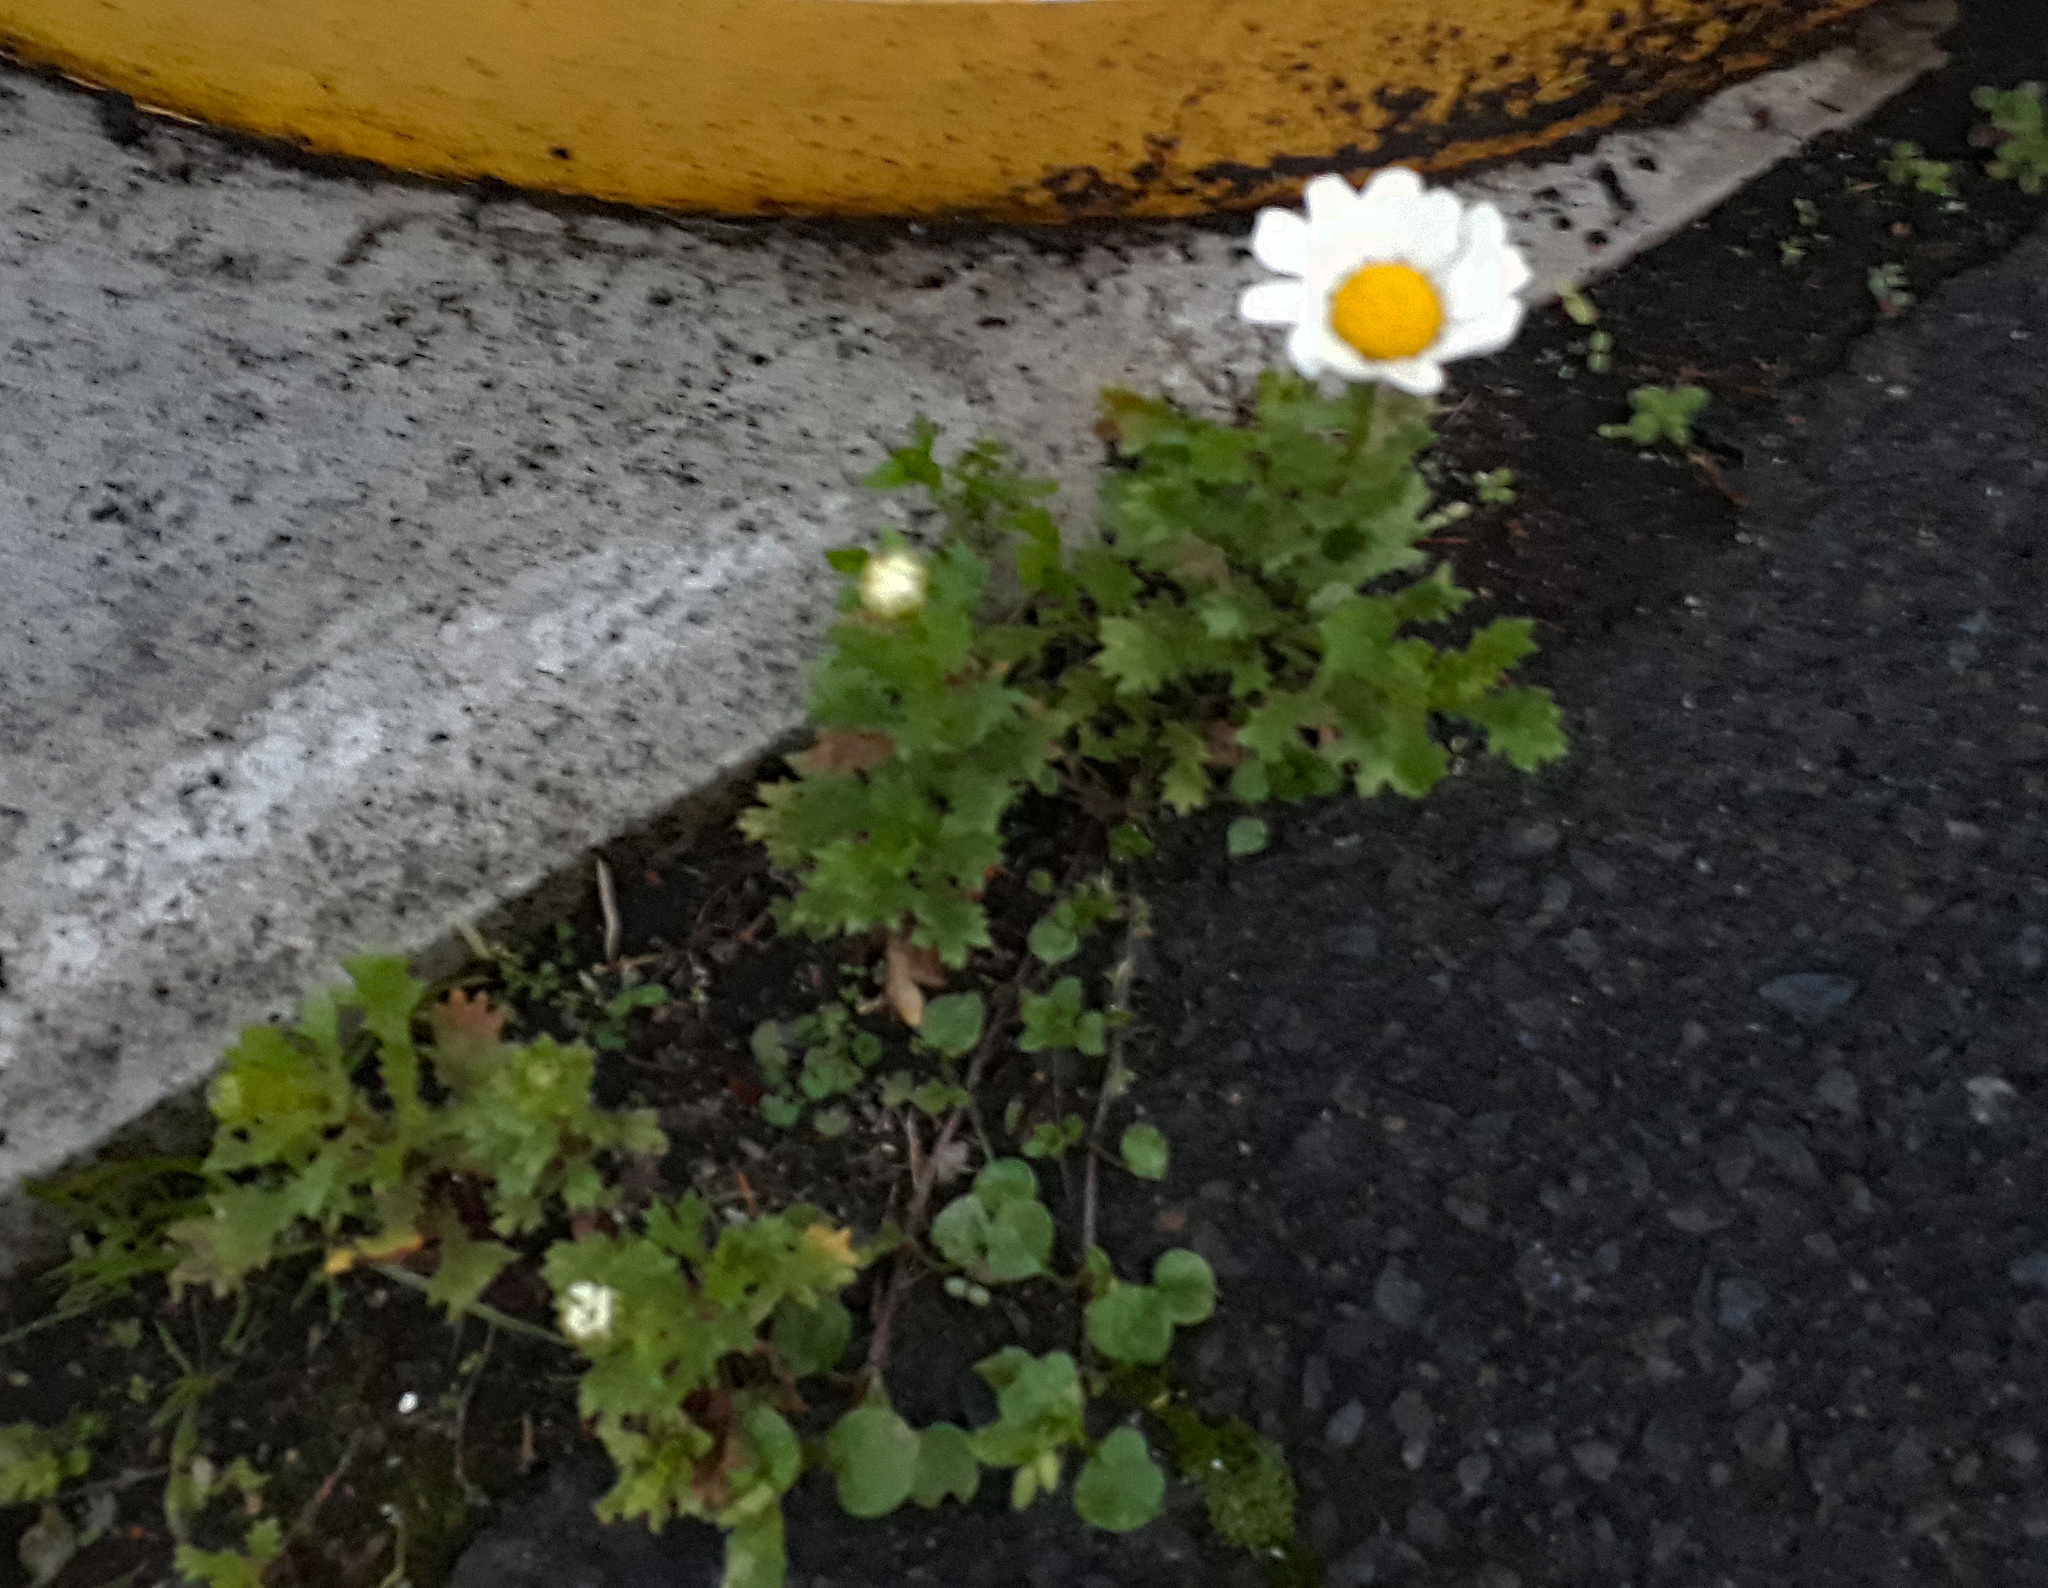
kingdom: Plantae
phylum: Tracheophyta
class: Magnoliopsida
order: Asterales
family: Asteraceae
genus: Mauranthemum
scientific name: Mauranthemum paludosum
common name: Sunflower
